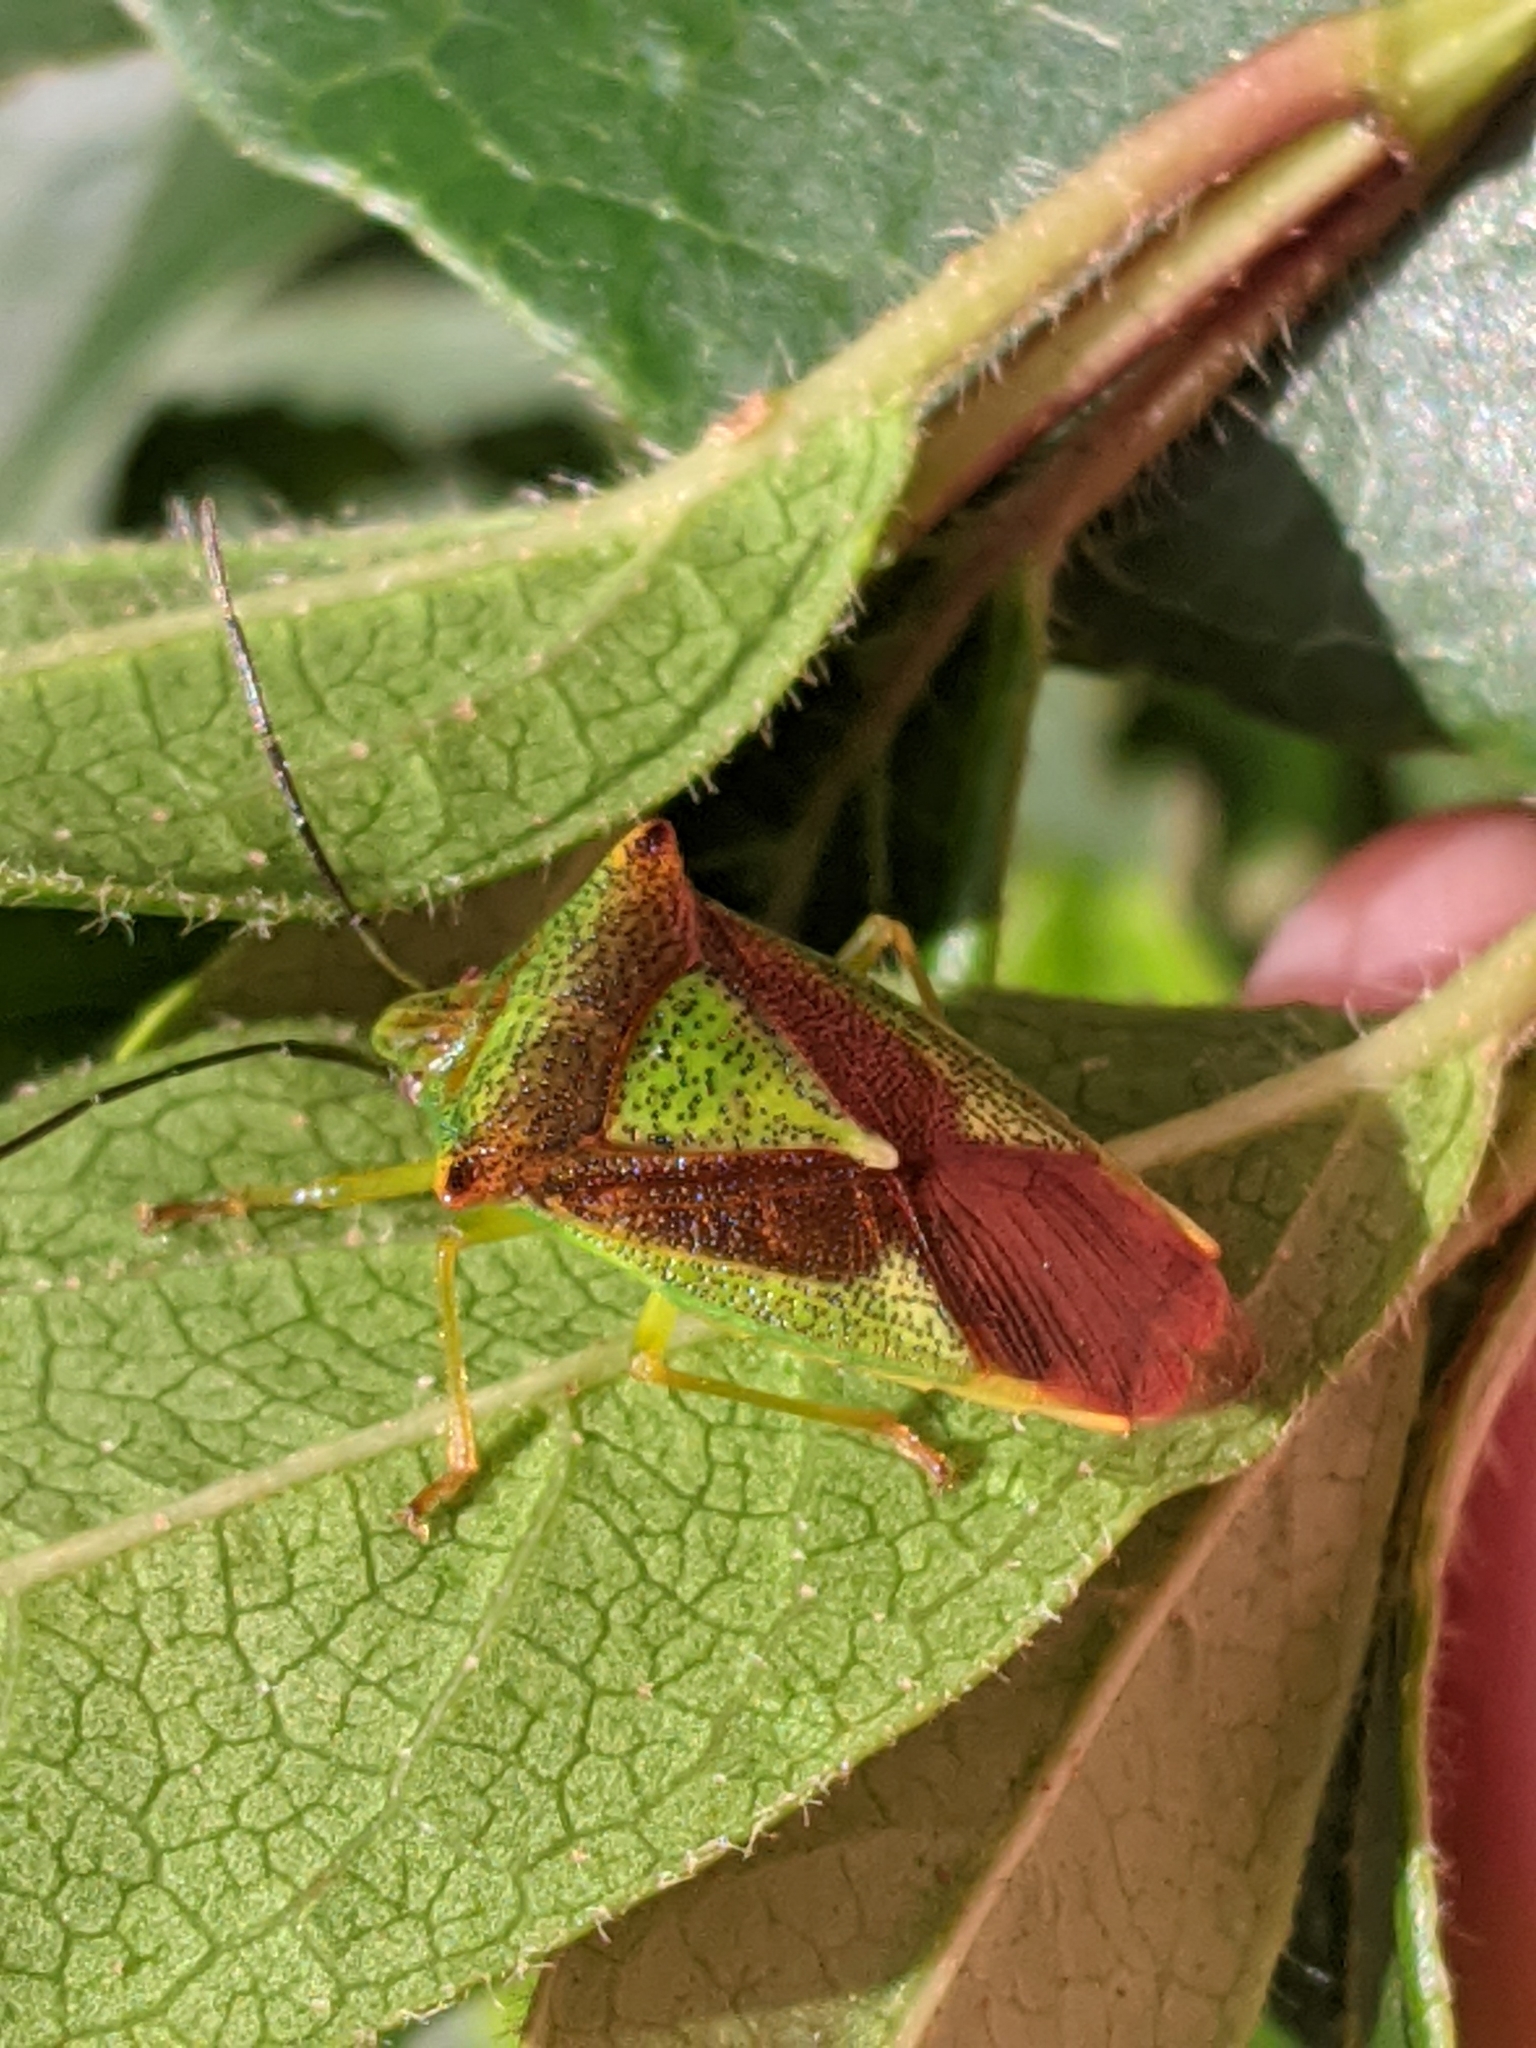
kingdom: Animalia
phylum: Arthropoda
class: Insecta
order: Hemiptera
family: Acanthosomatidae
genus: Acanthosoma
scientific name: Acanthosoma haemorrhoidale
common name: Hawthorn shieldbug
